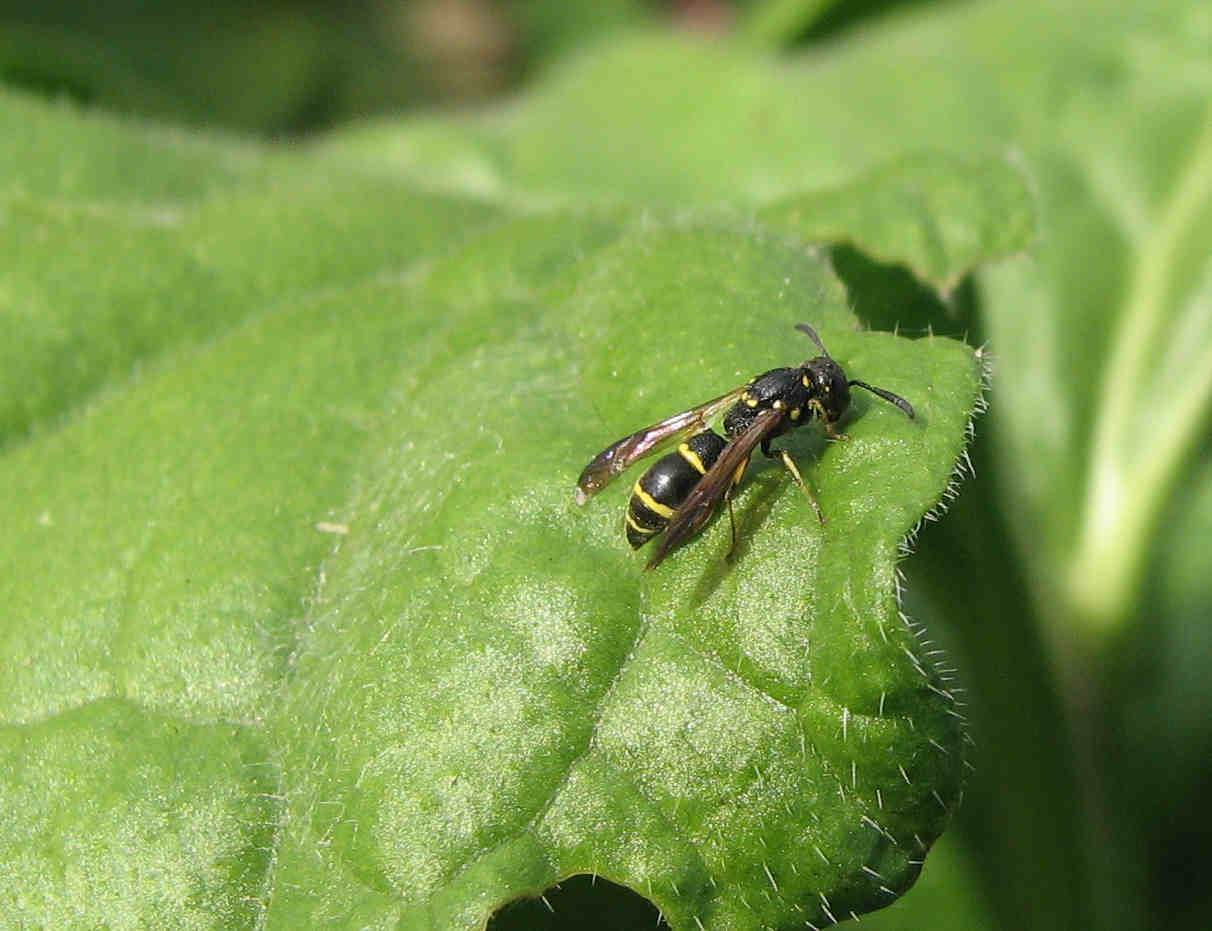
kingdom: Animalia
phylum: Arthropoda
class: Insecta
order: Hymenoptera
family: Eumenidae
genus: Symmorphus
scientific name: Symmorphus
